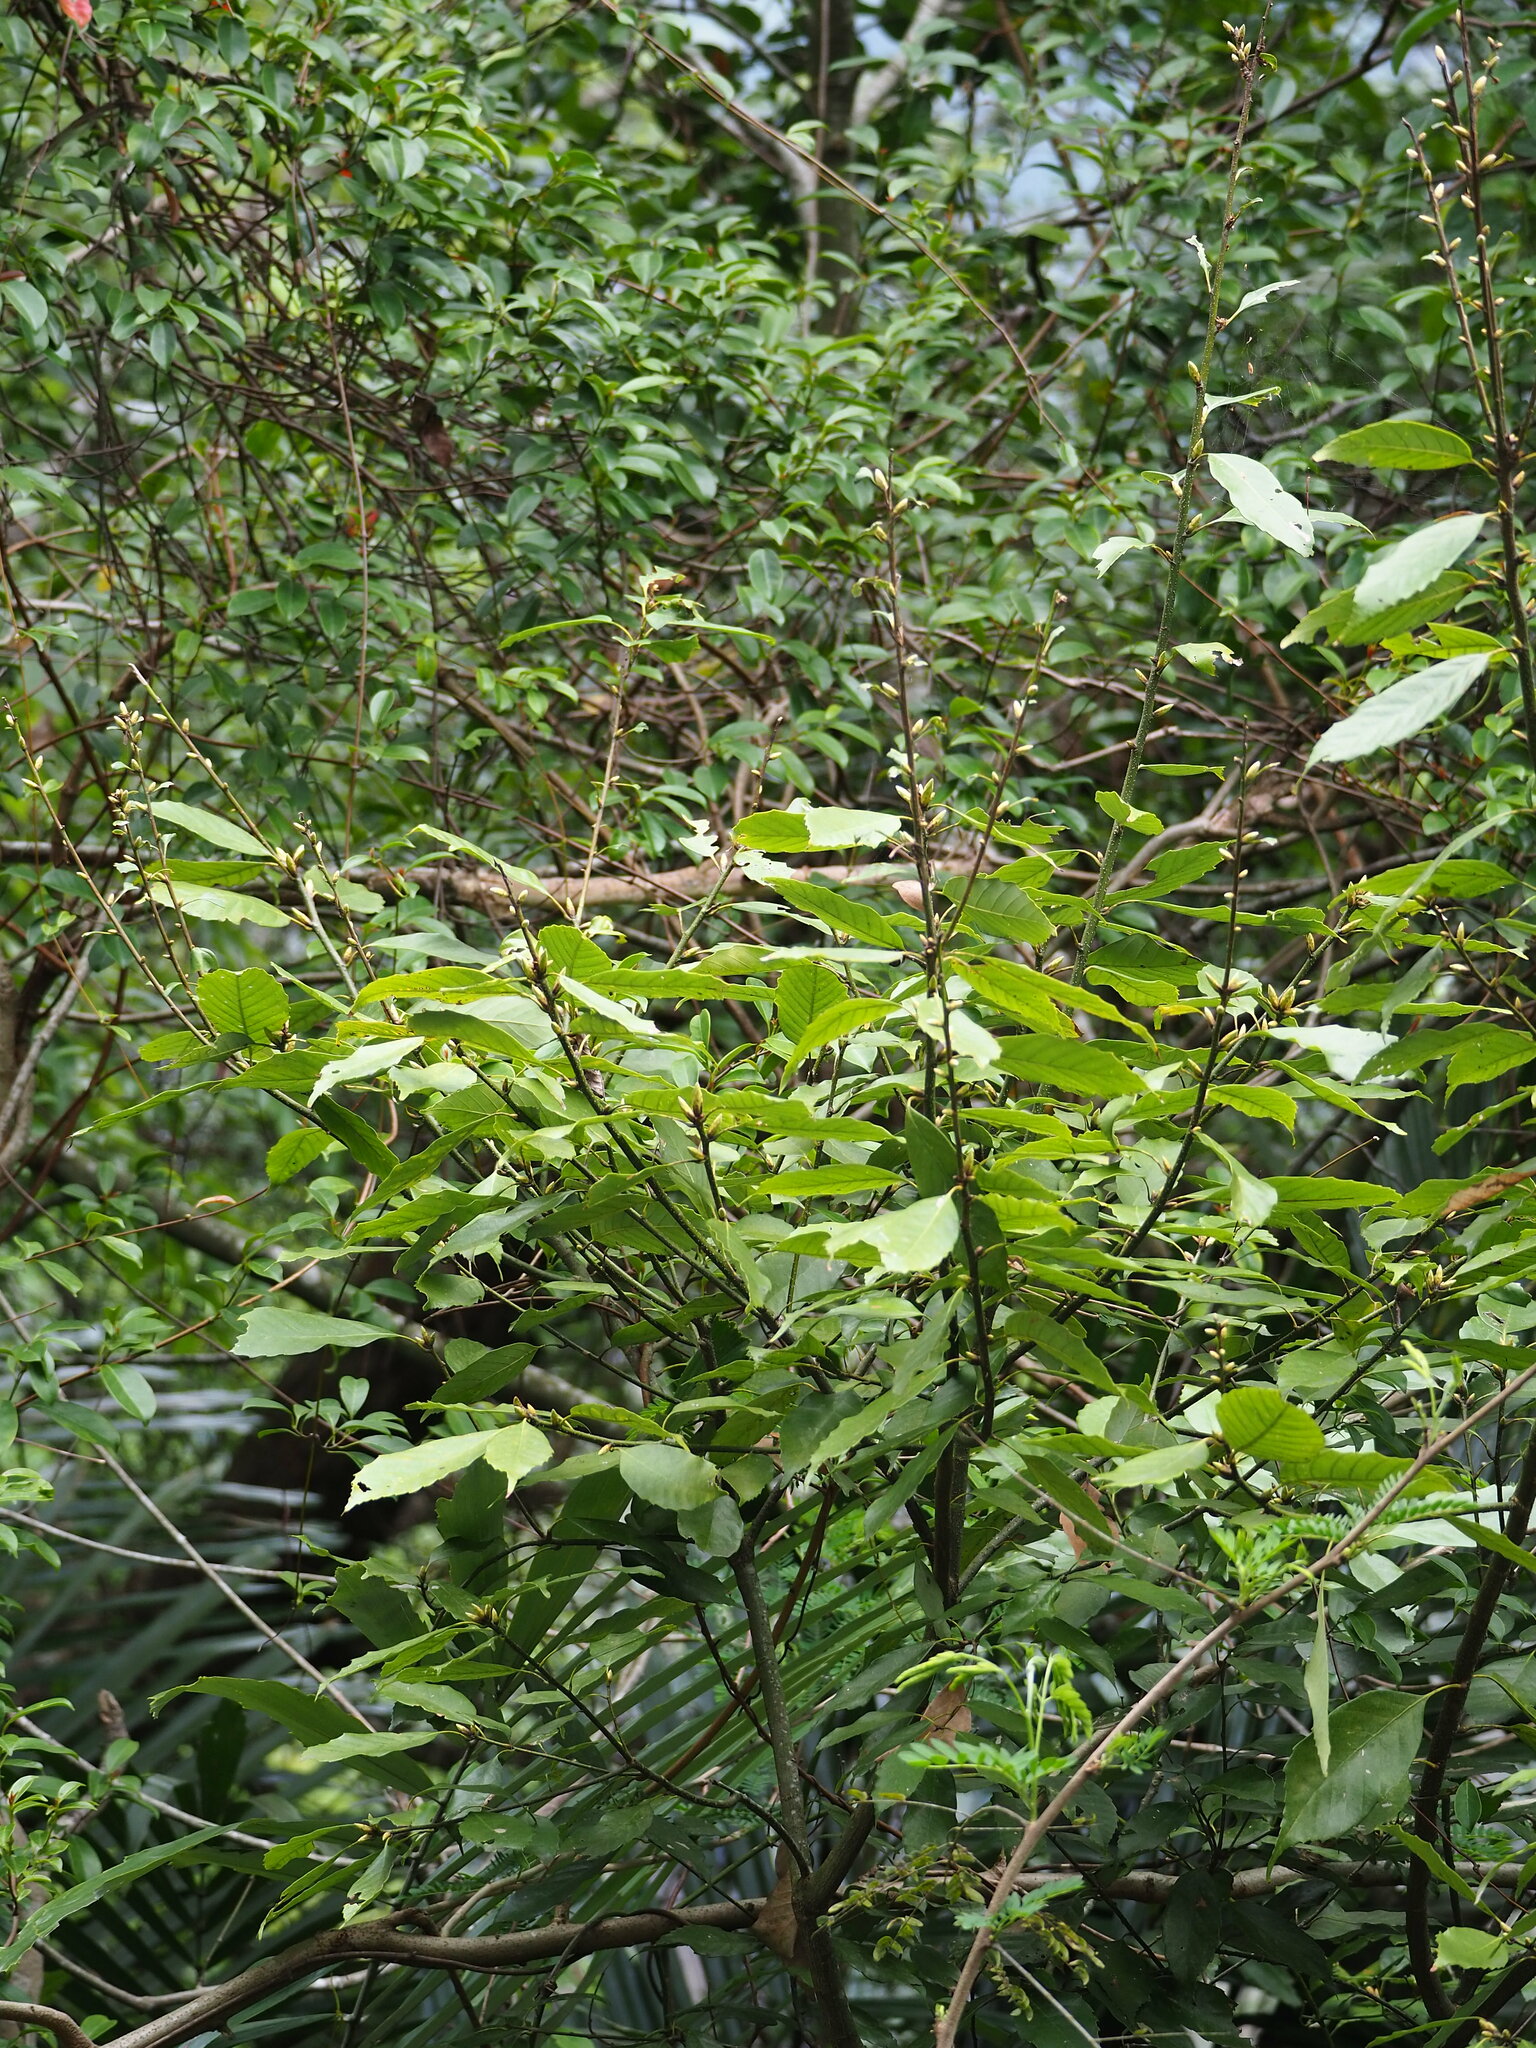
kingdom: Plantae
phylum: Tracheophyta
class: Magnoliopsida
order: Fagales
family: Fagaceae
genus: Quercus
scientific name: Quercus glauca
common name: Ring-cup oak
